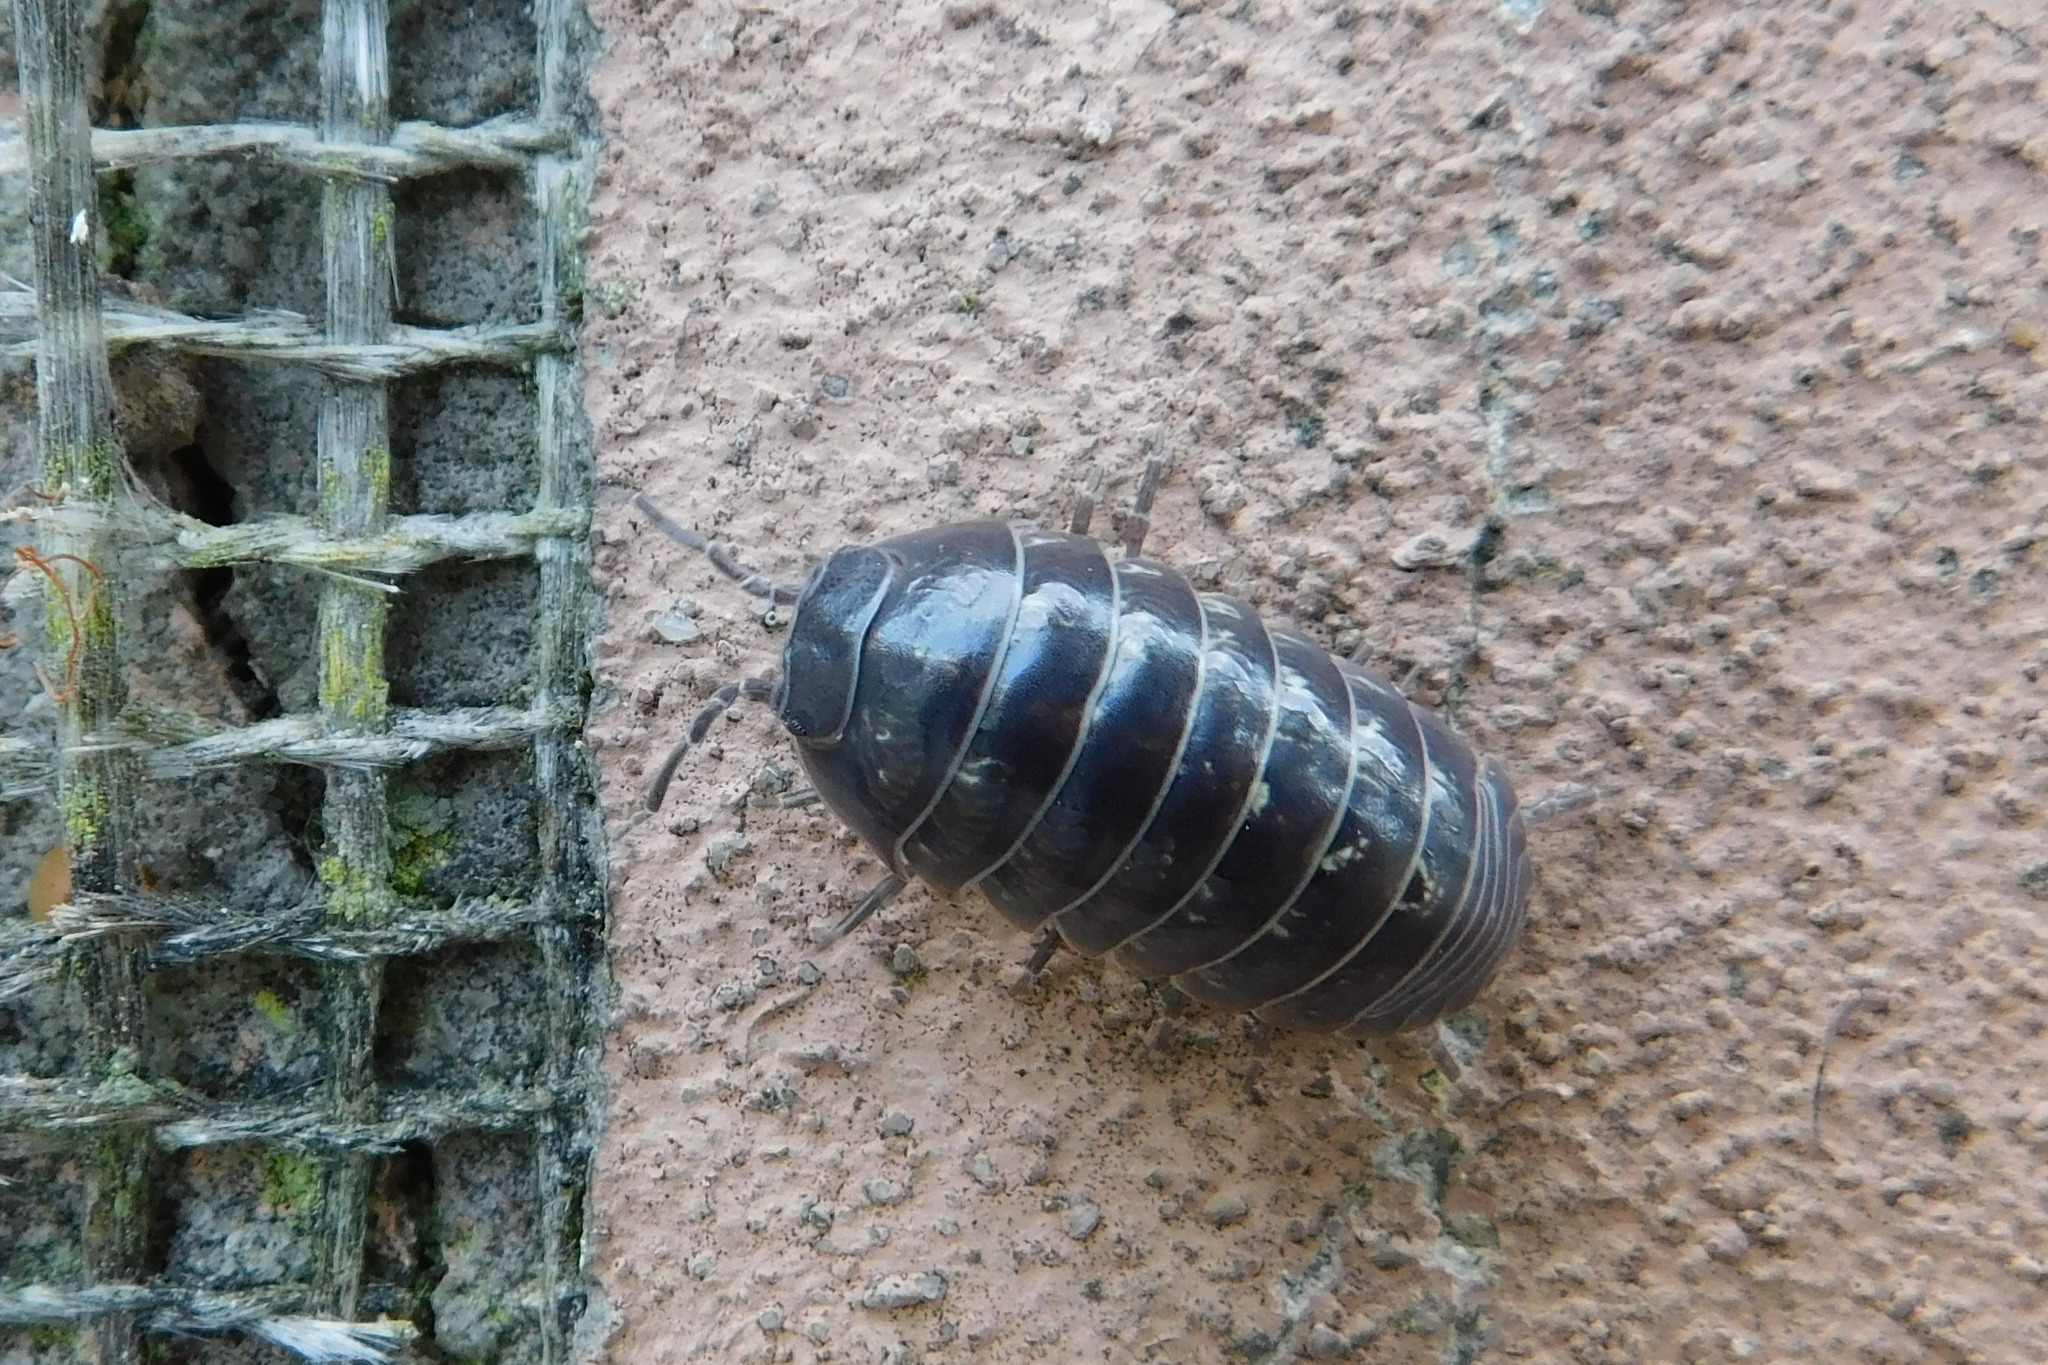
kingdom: Animalia
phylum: Arthropoda
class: Malacostraca
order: Isopoda
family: Armadillidiidae
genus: Armadillidium
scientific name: Armadillidium vulgare
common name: Common pill woodlouse
